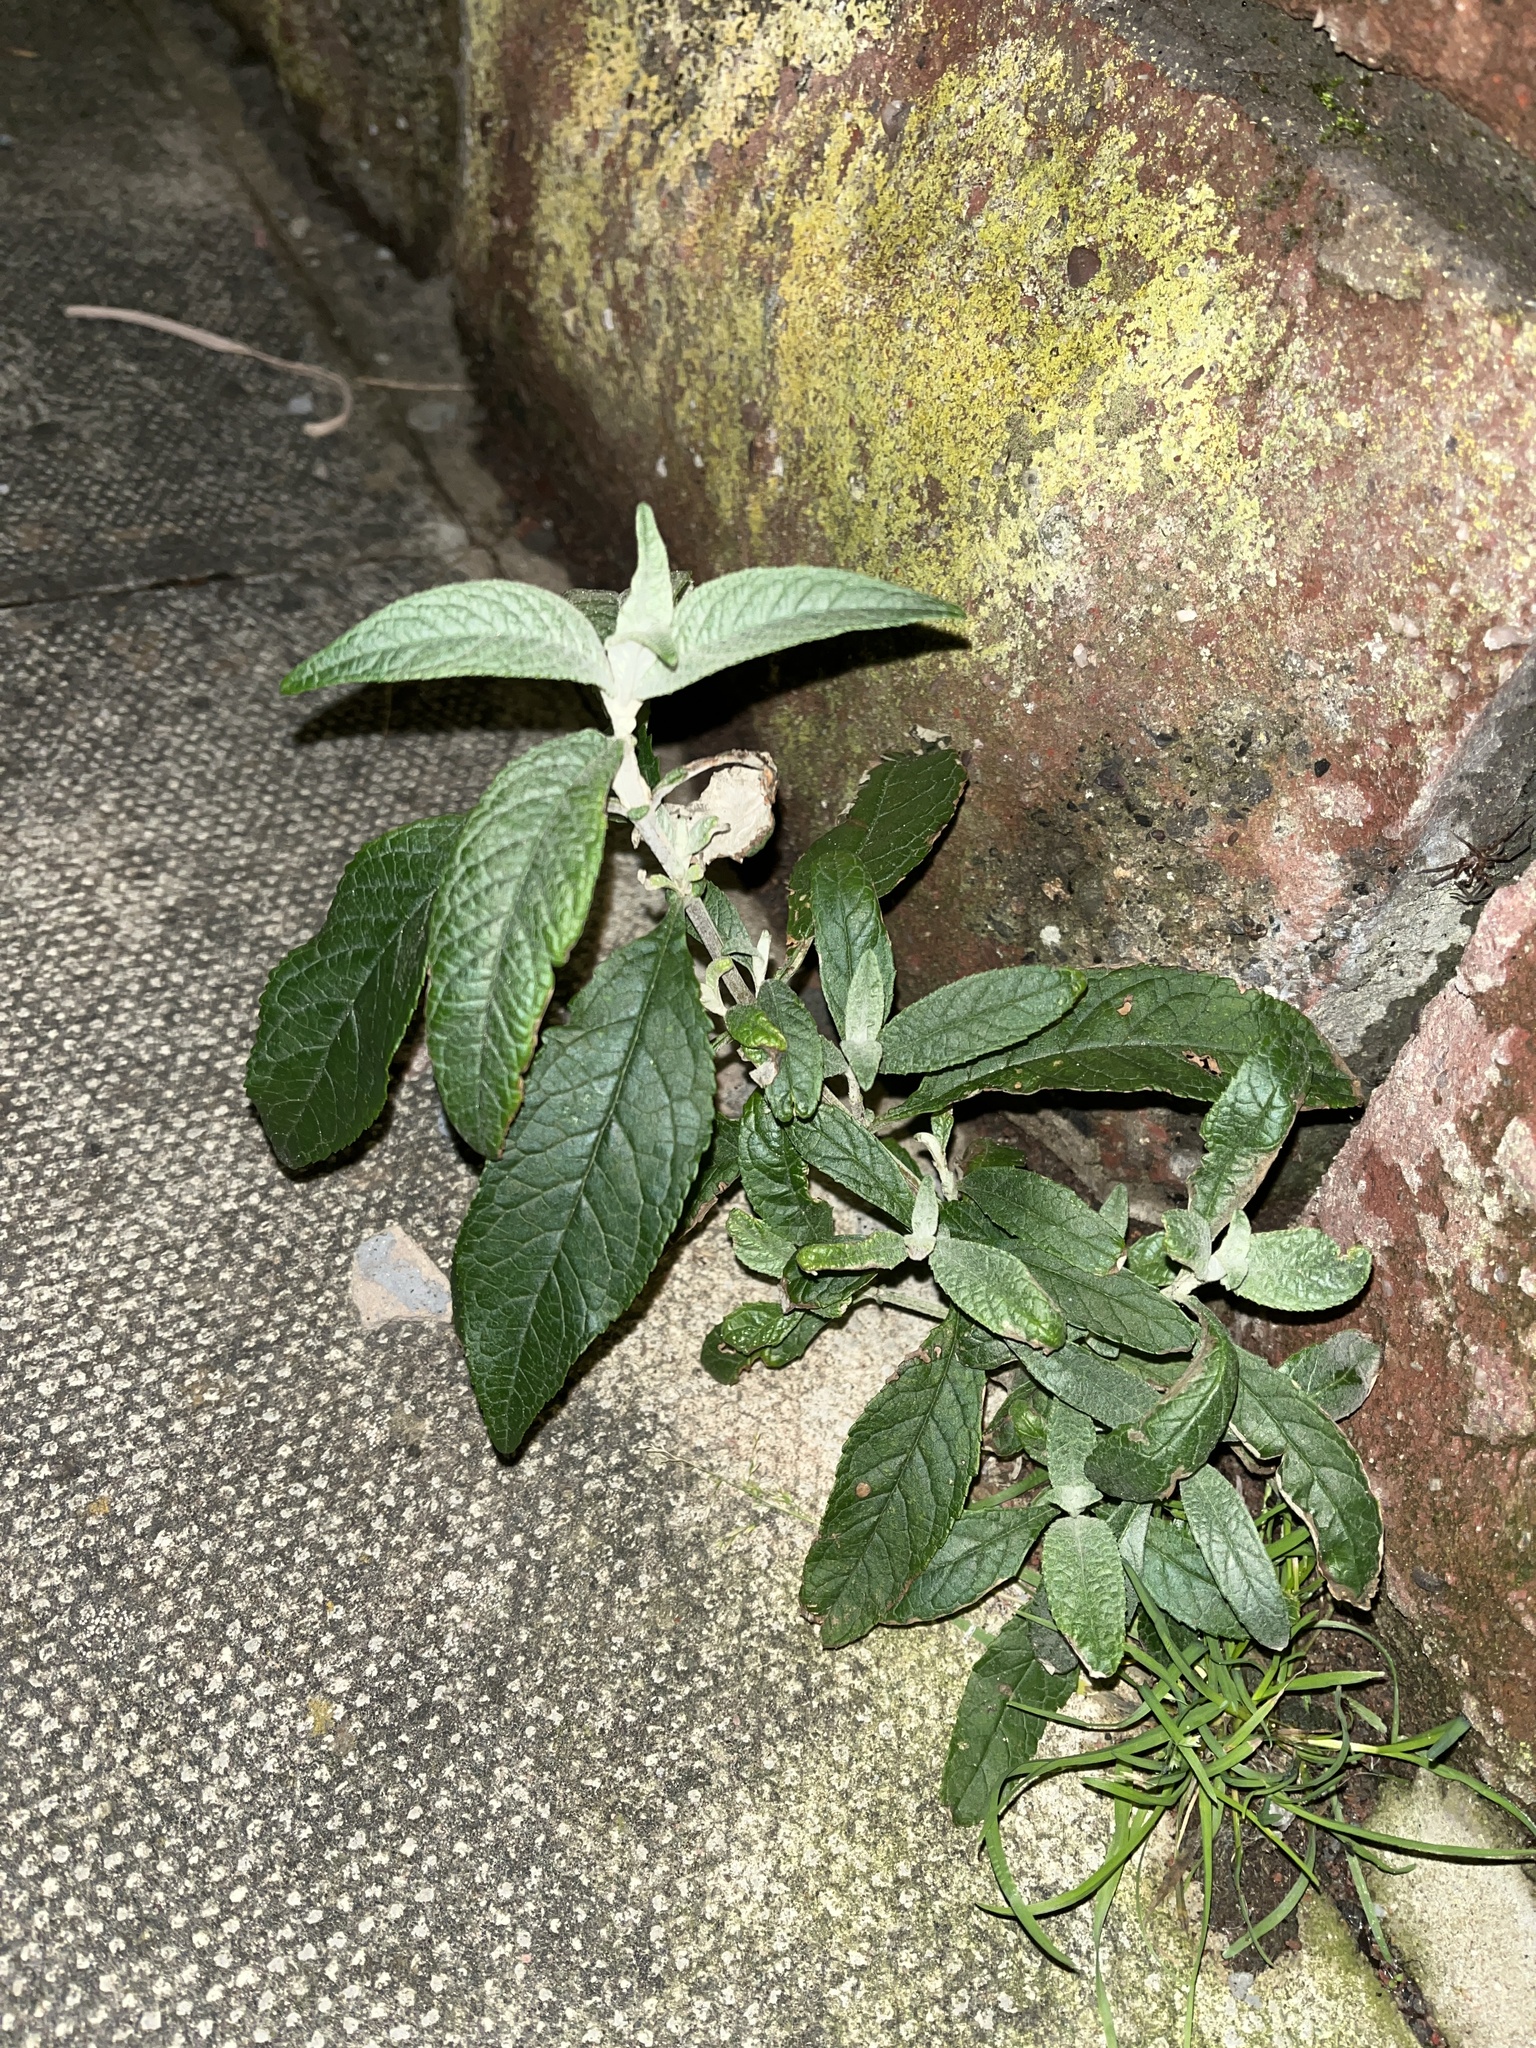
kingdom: Plantae
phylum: Tracheophyta
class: Magnoliopsida
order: Lamiales
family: Scrophulariaceae
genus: Buddleja
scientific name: Buddleja davidii
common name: Butterfly-bush
